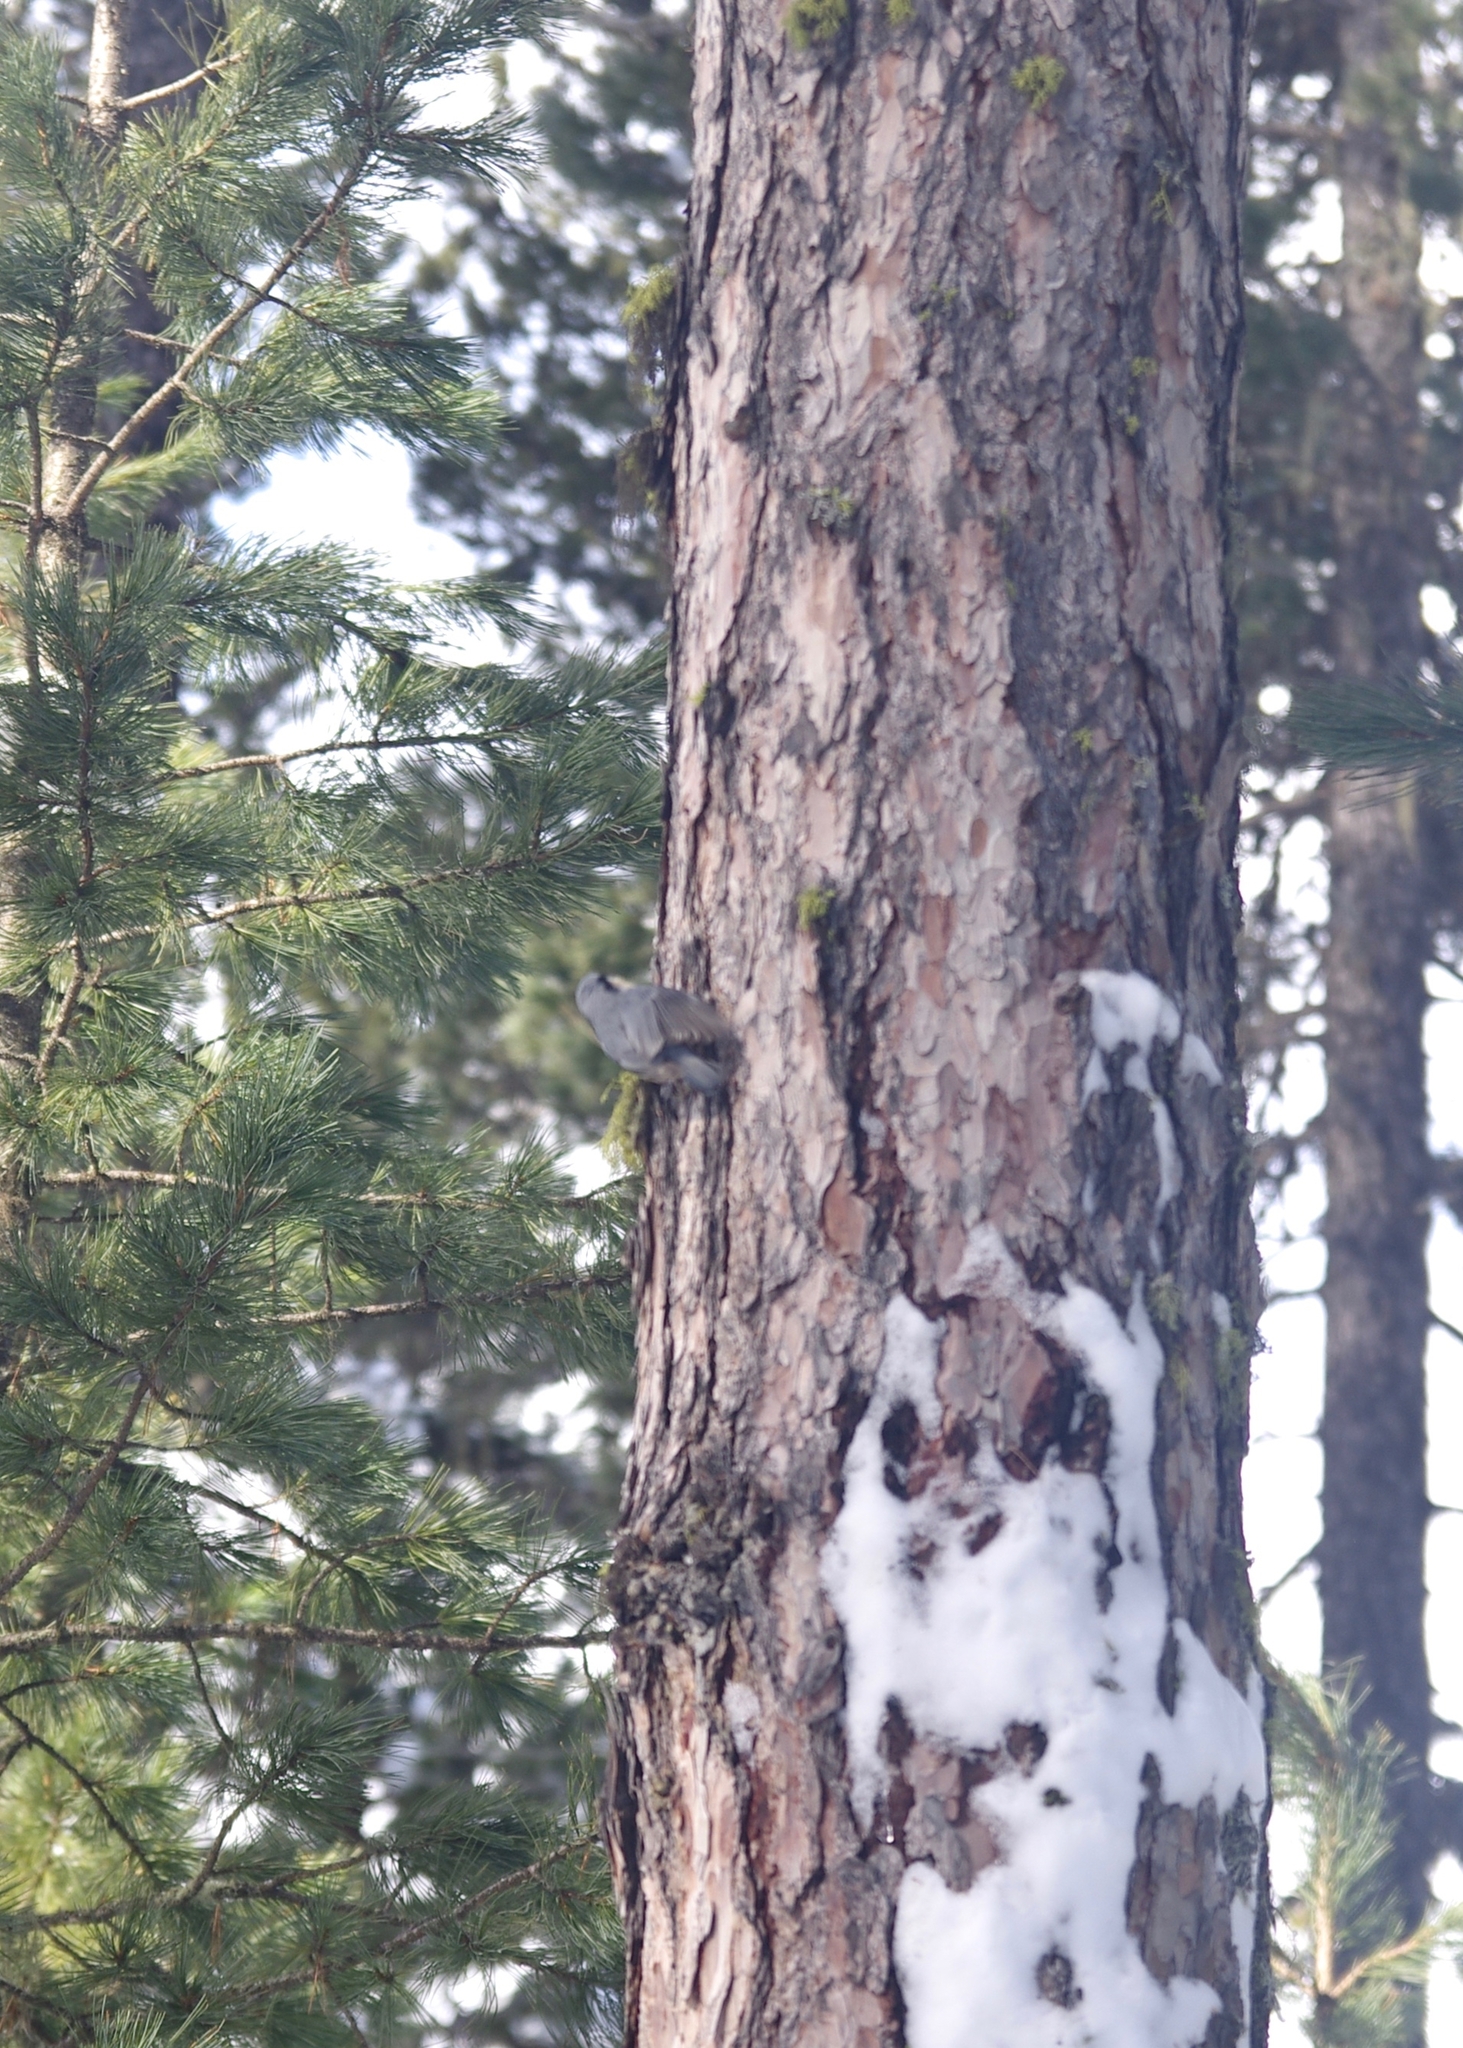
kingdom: Animalia
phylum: Chordata
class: Aves
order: Passeriformes
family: Sittidae
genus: Sitta
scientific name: Sitta europaea
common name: Eurasian nuthatch
